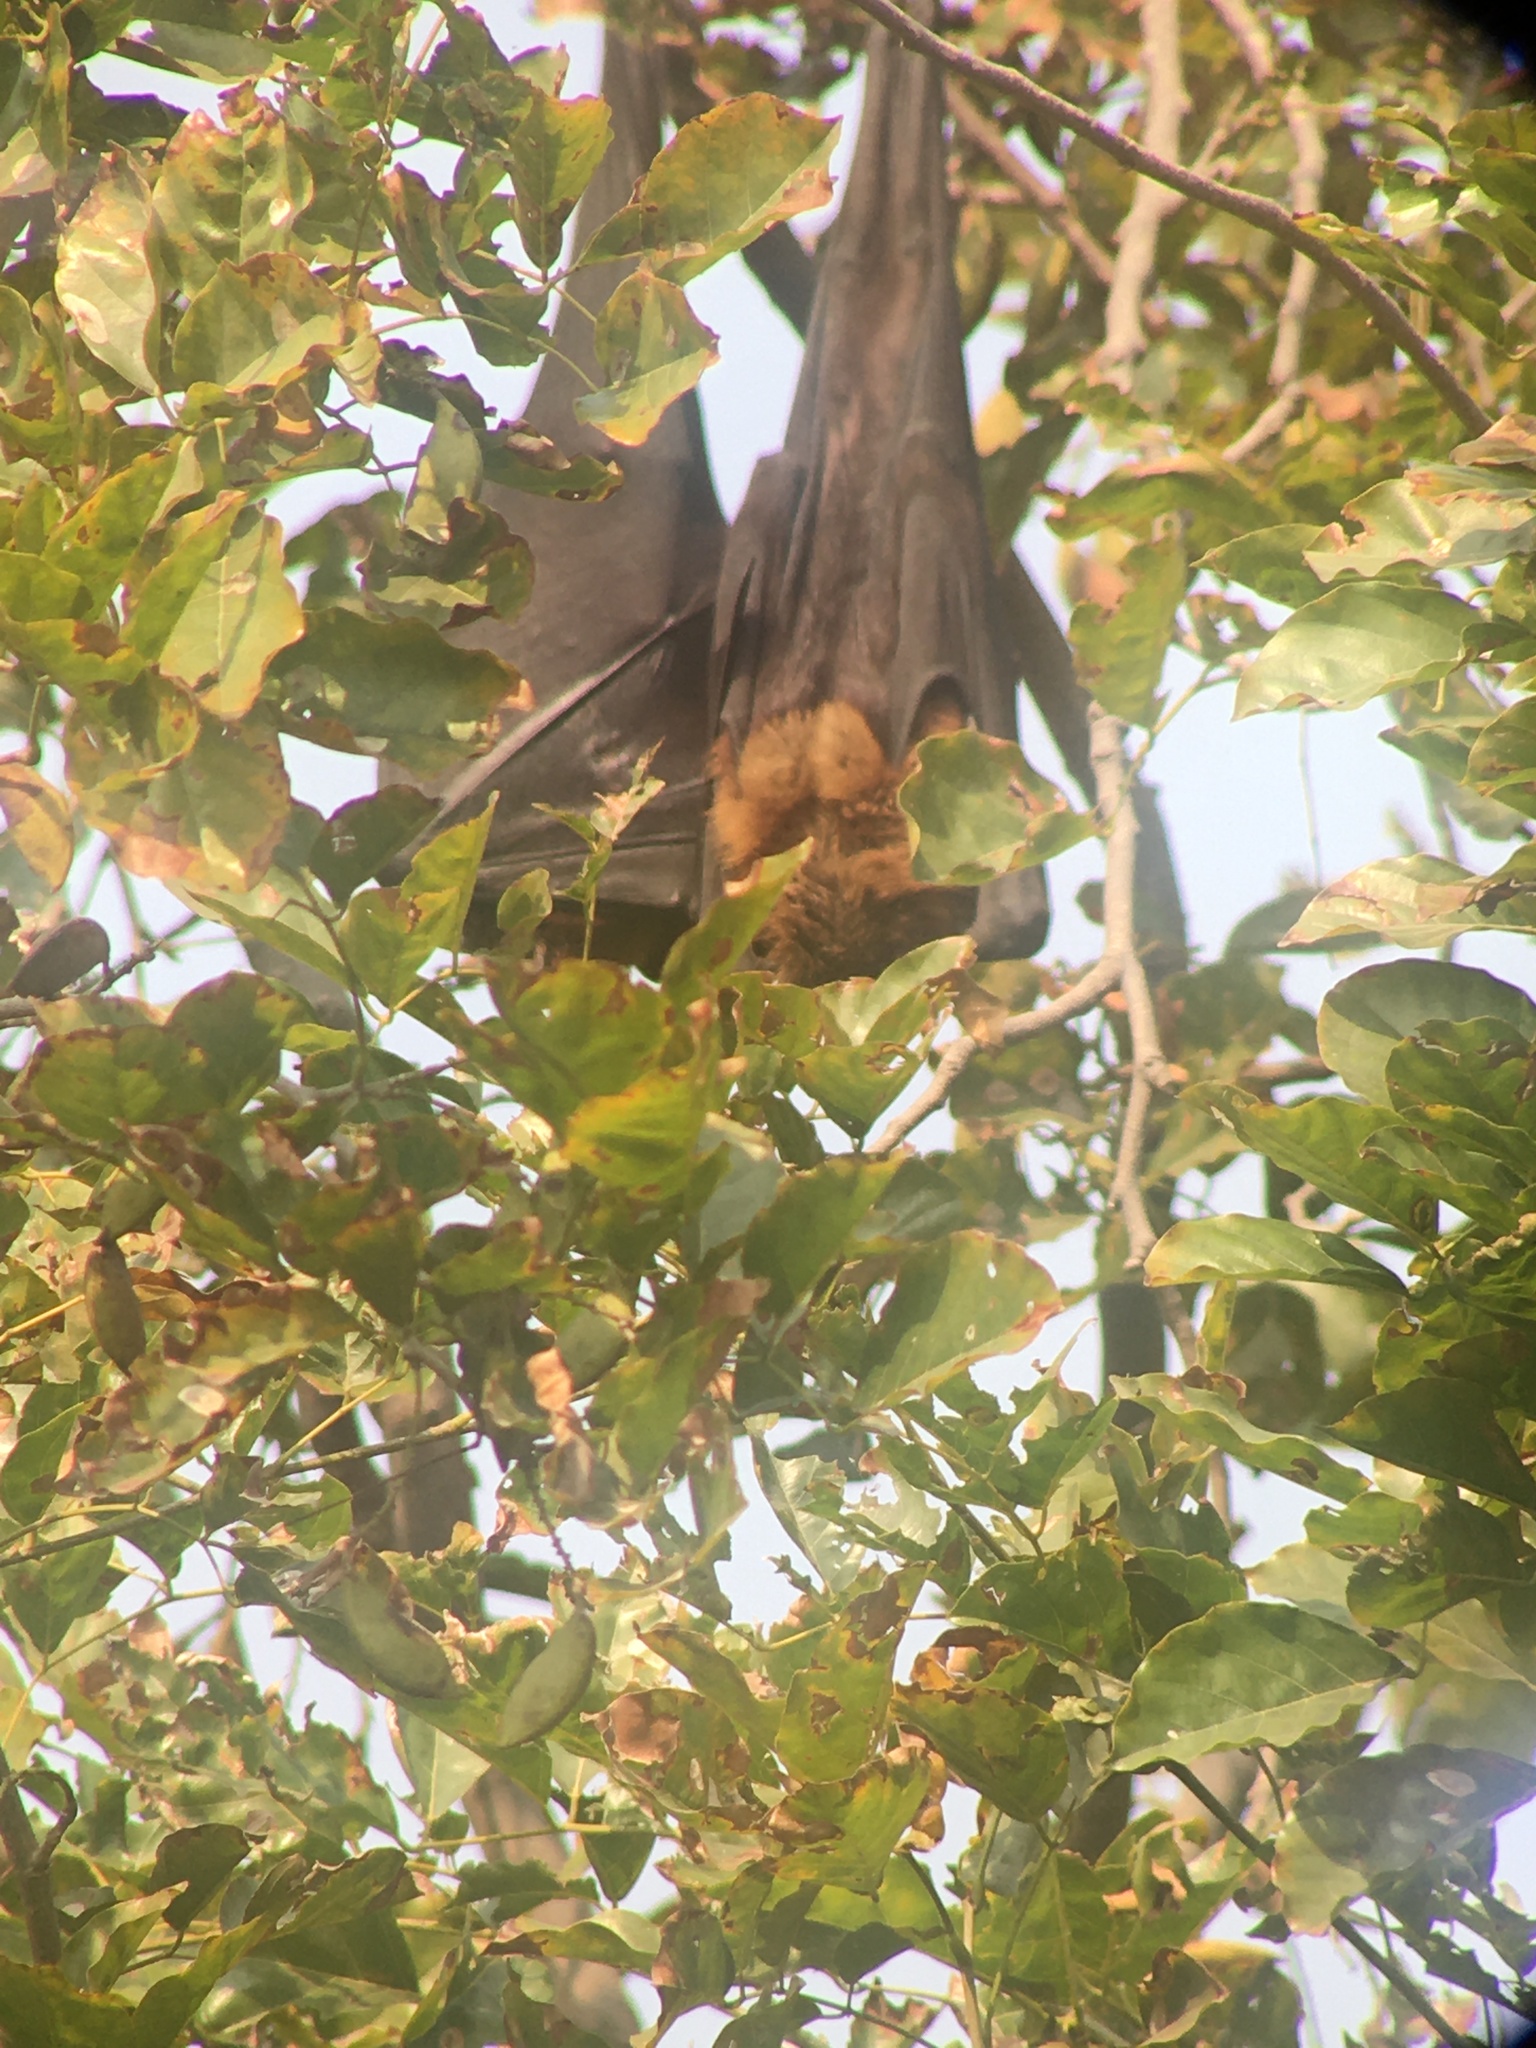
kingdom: Animalia
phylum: Chordata
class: Mammalia
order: Chiroptera
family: Pteropodidae
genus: Pteropus
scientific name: Pteropus vampyrus
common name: Large flying fox
